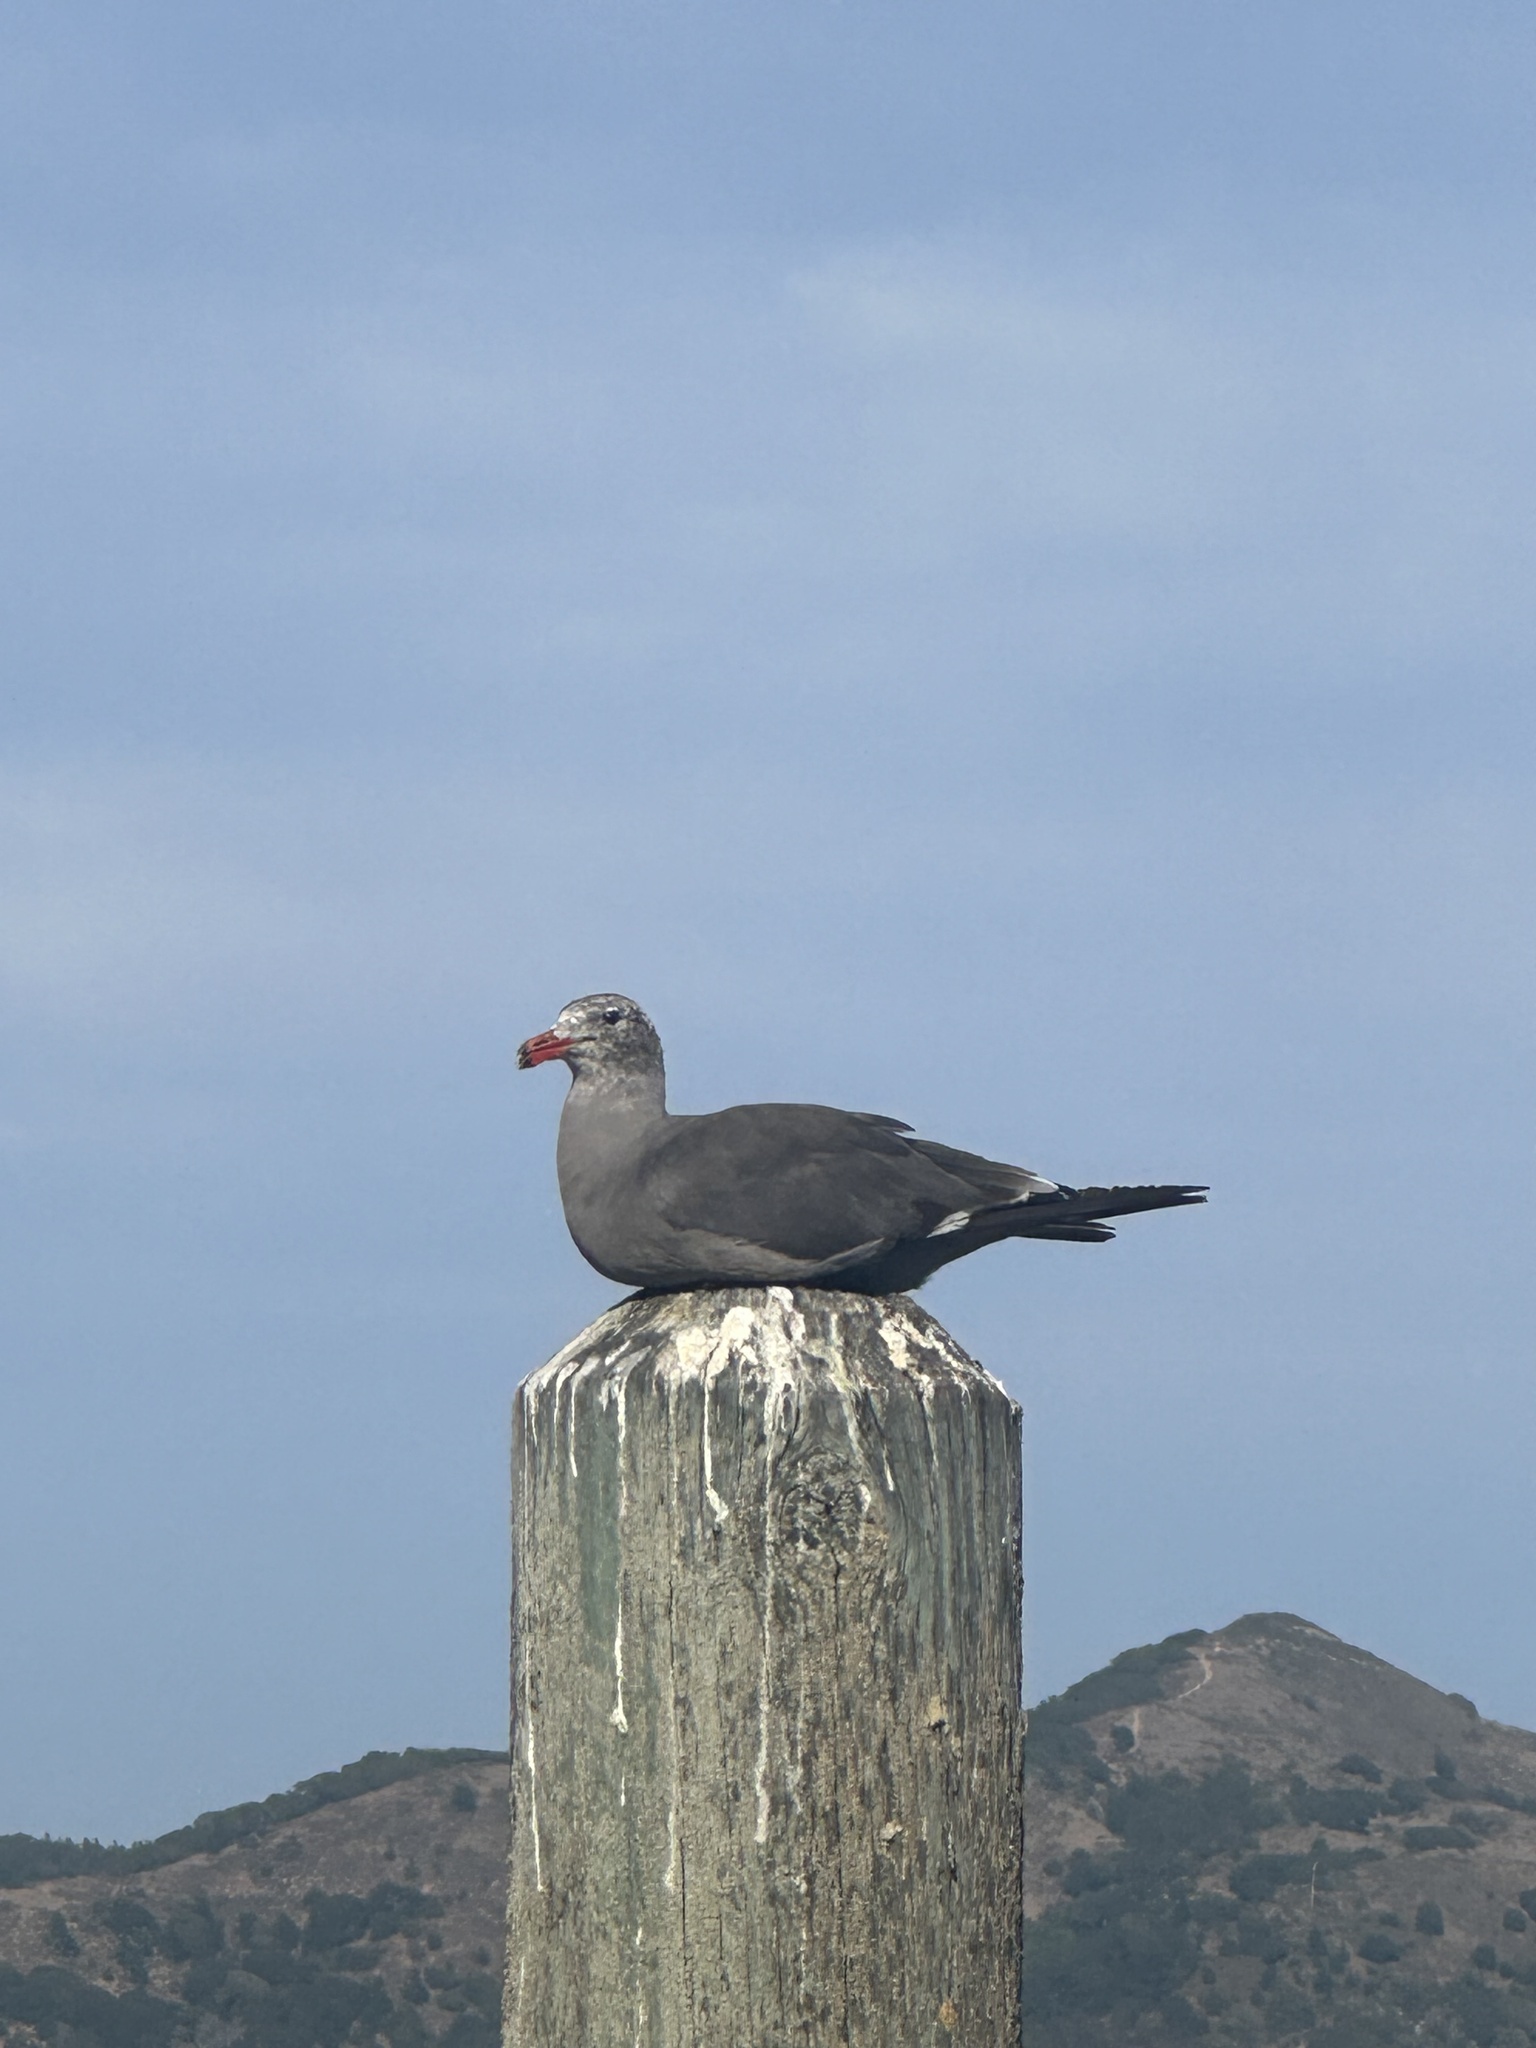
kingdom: Animalia
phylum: Chordata
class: Aves
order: Charadriiformes
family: Laridae
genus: Larus
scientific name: Larus heermanni
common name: Heermann's gull
